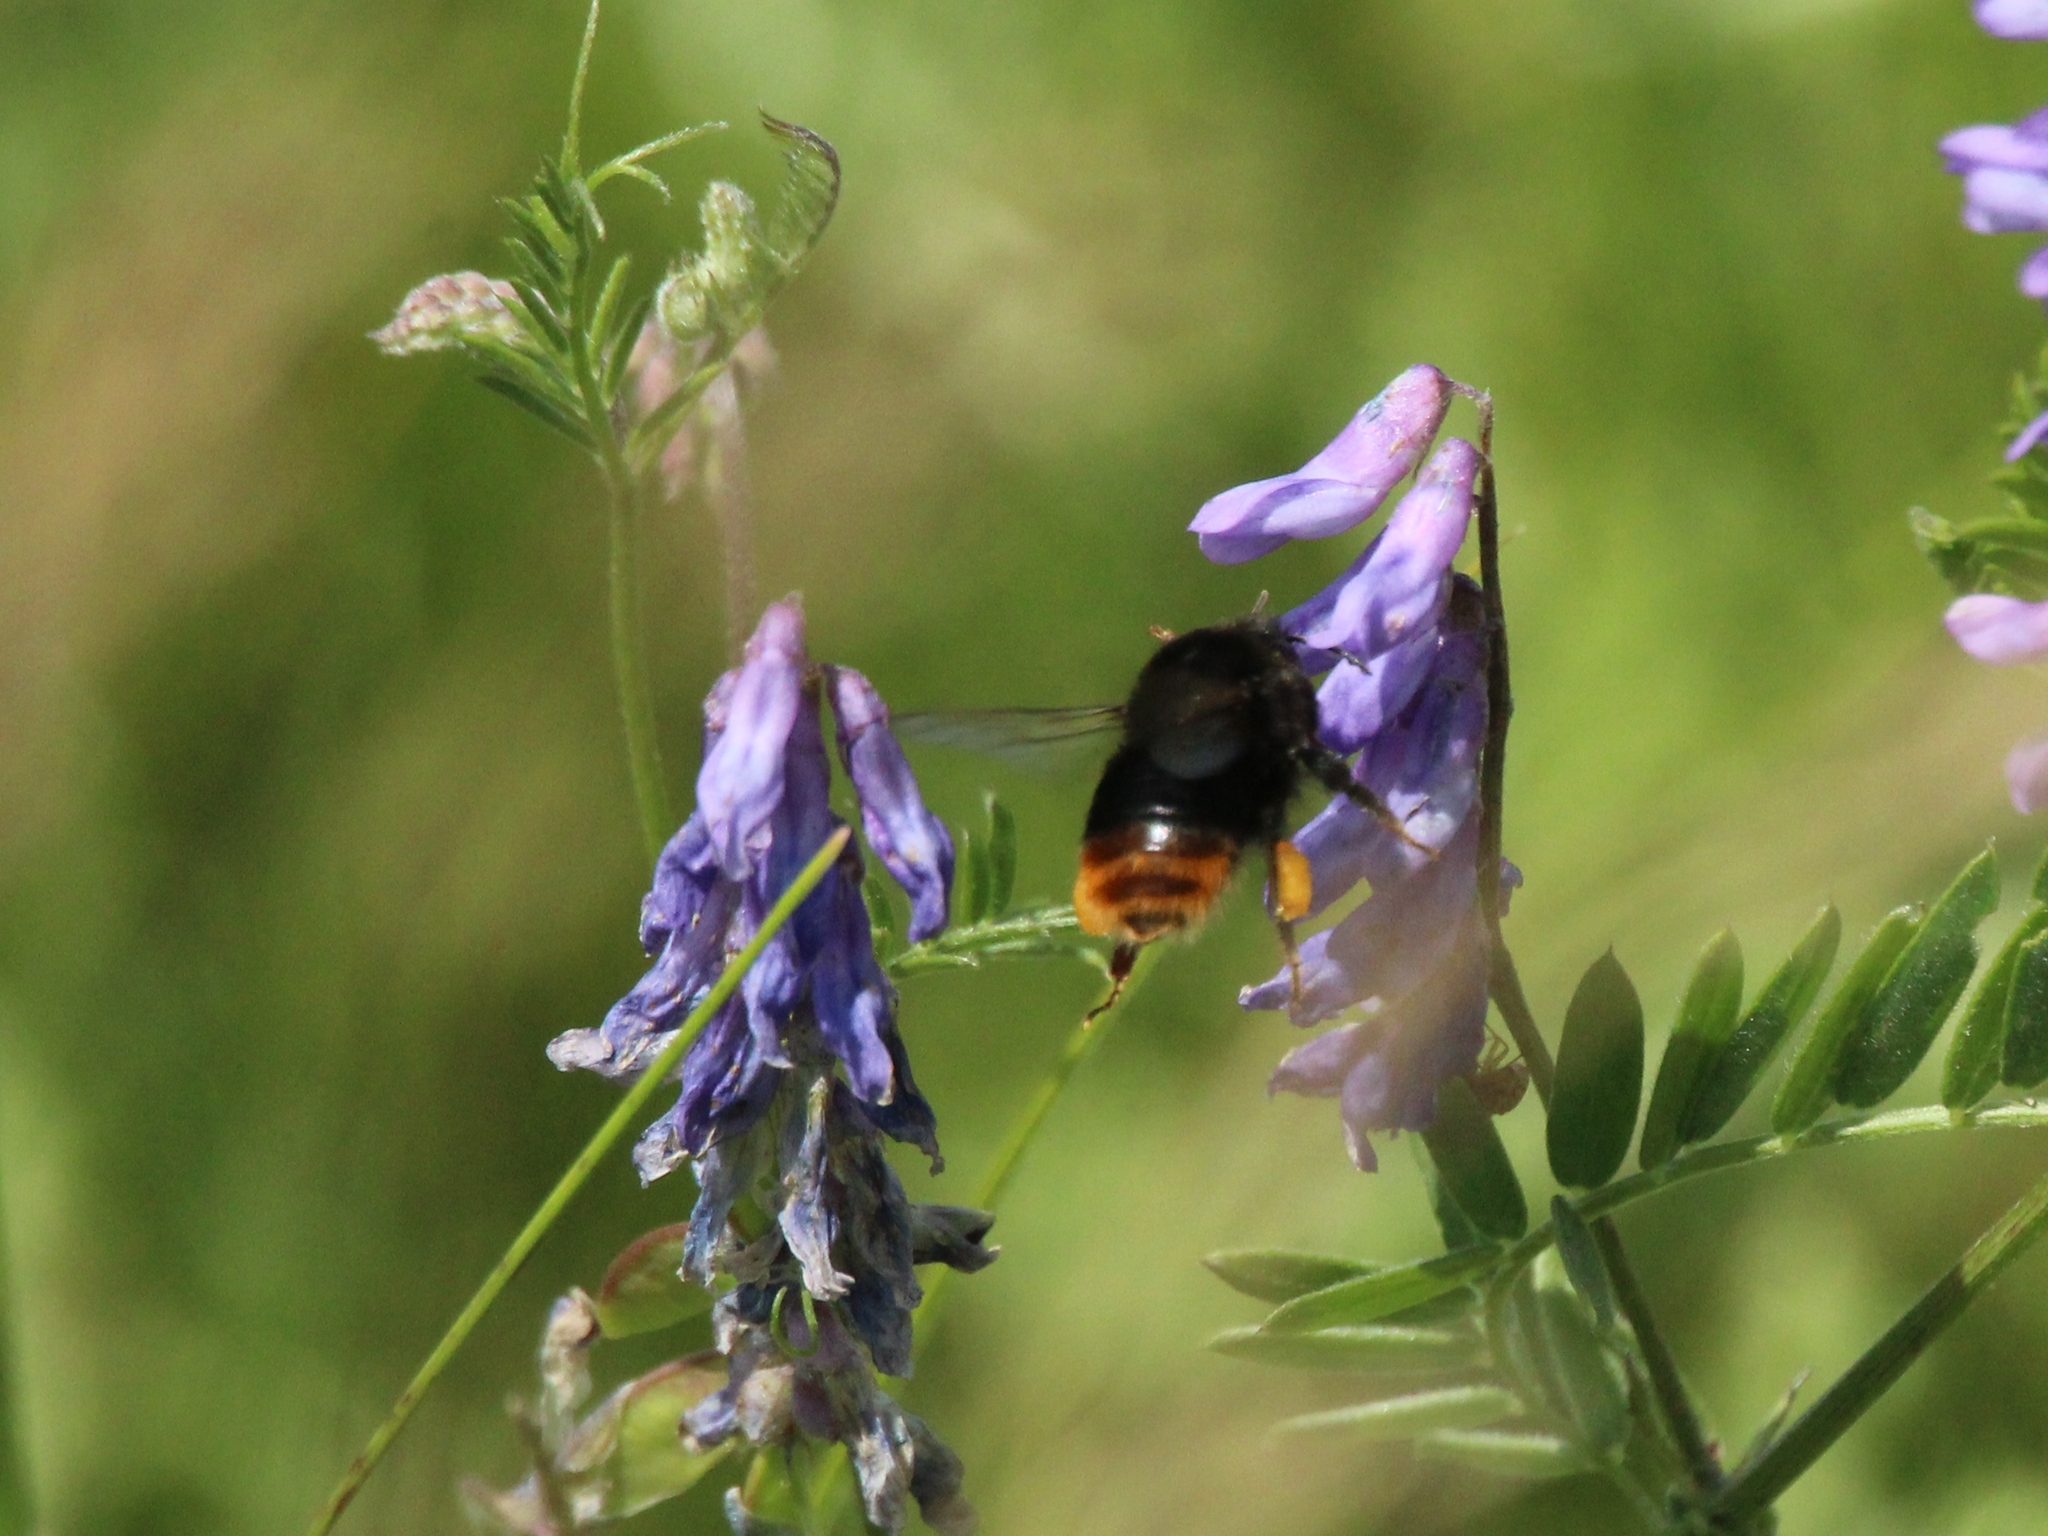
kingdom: Animalia
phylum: Arthropoda
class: Insecta
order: Hymenoptera
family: Apidae
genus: Bombus
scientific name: Bombus
